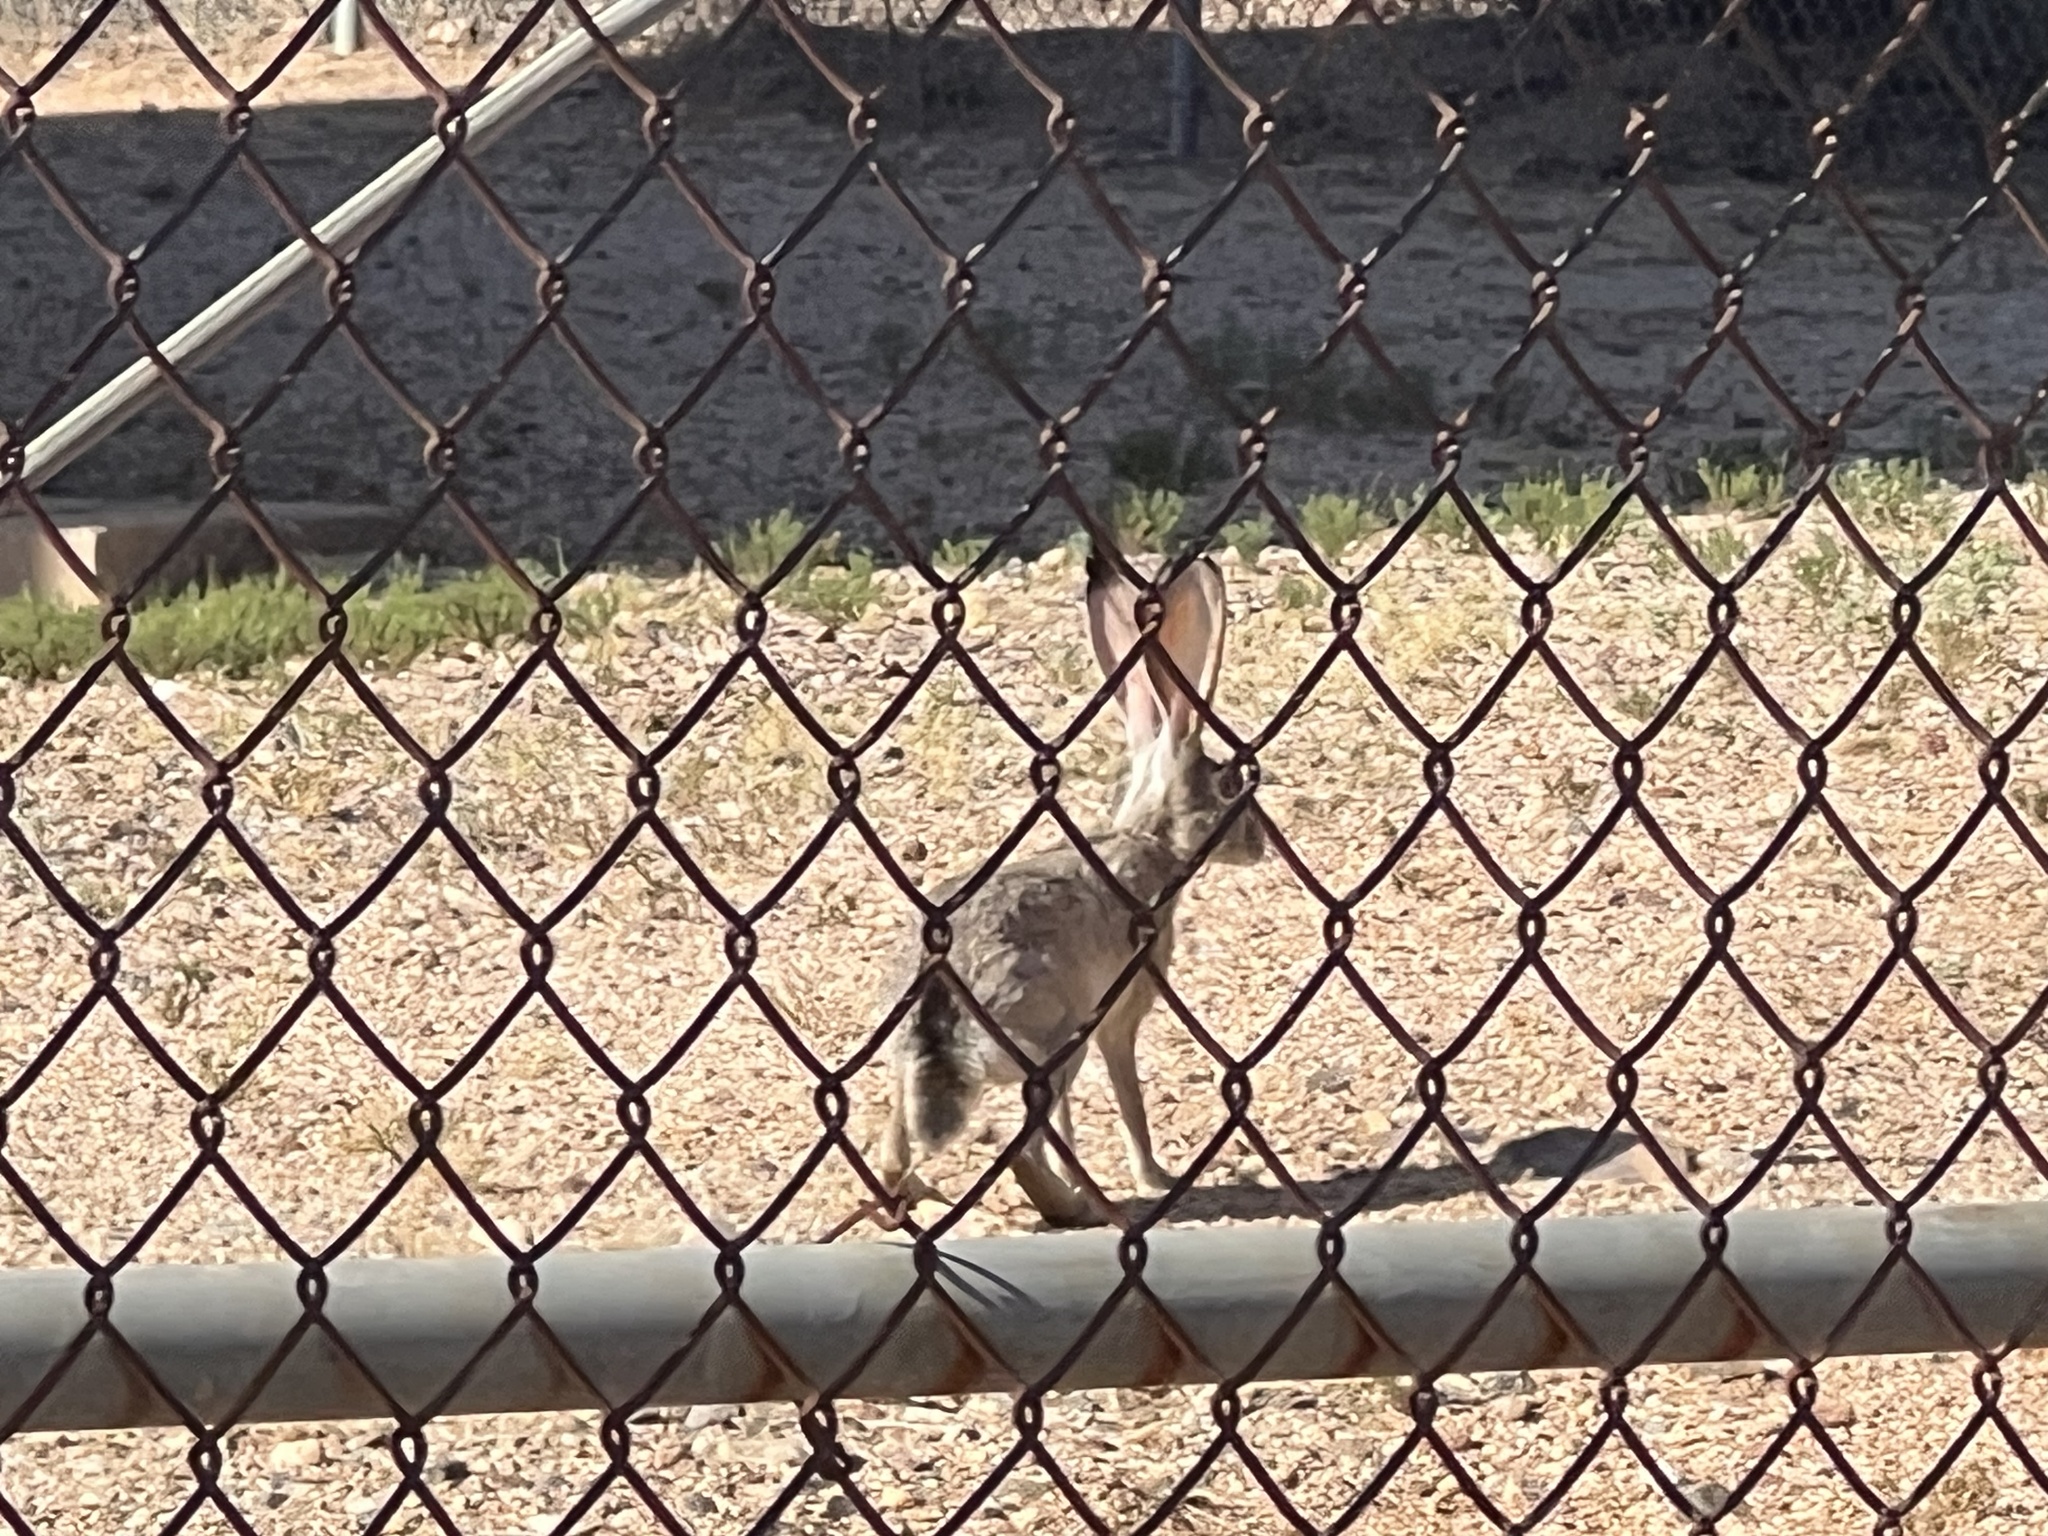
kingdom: Animalia
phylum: Chordata
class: Mammalia
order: Lagomorpha
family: Leporidae
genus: Lepus
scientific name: Lepus californicus
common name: Black-tailed jackrabbit
